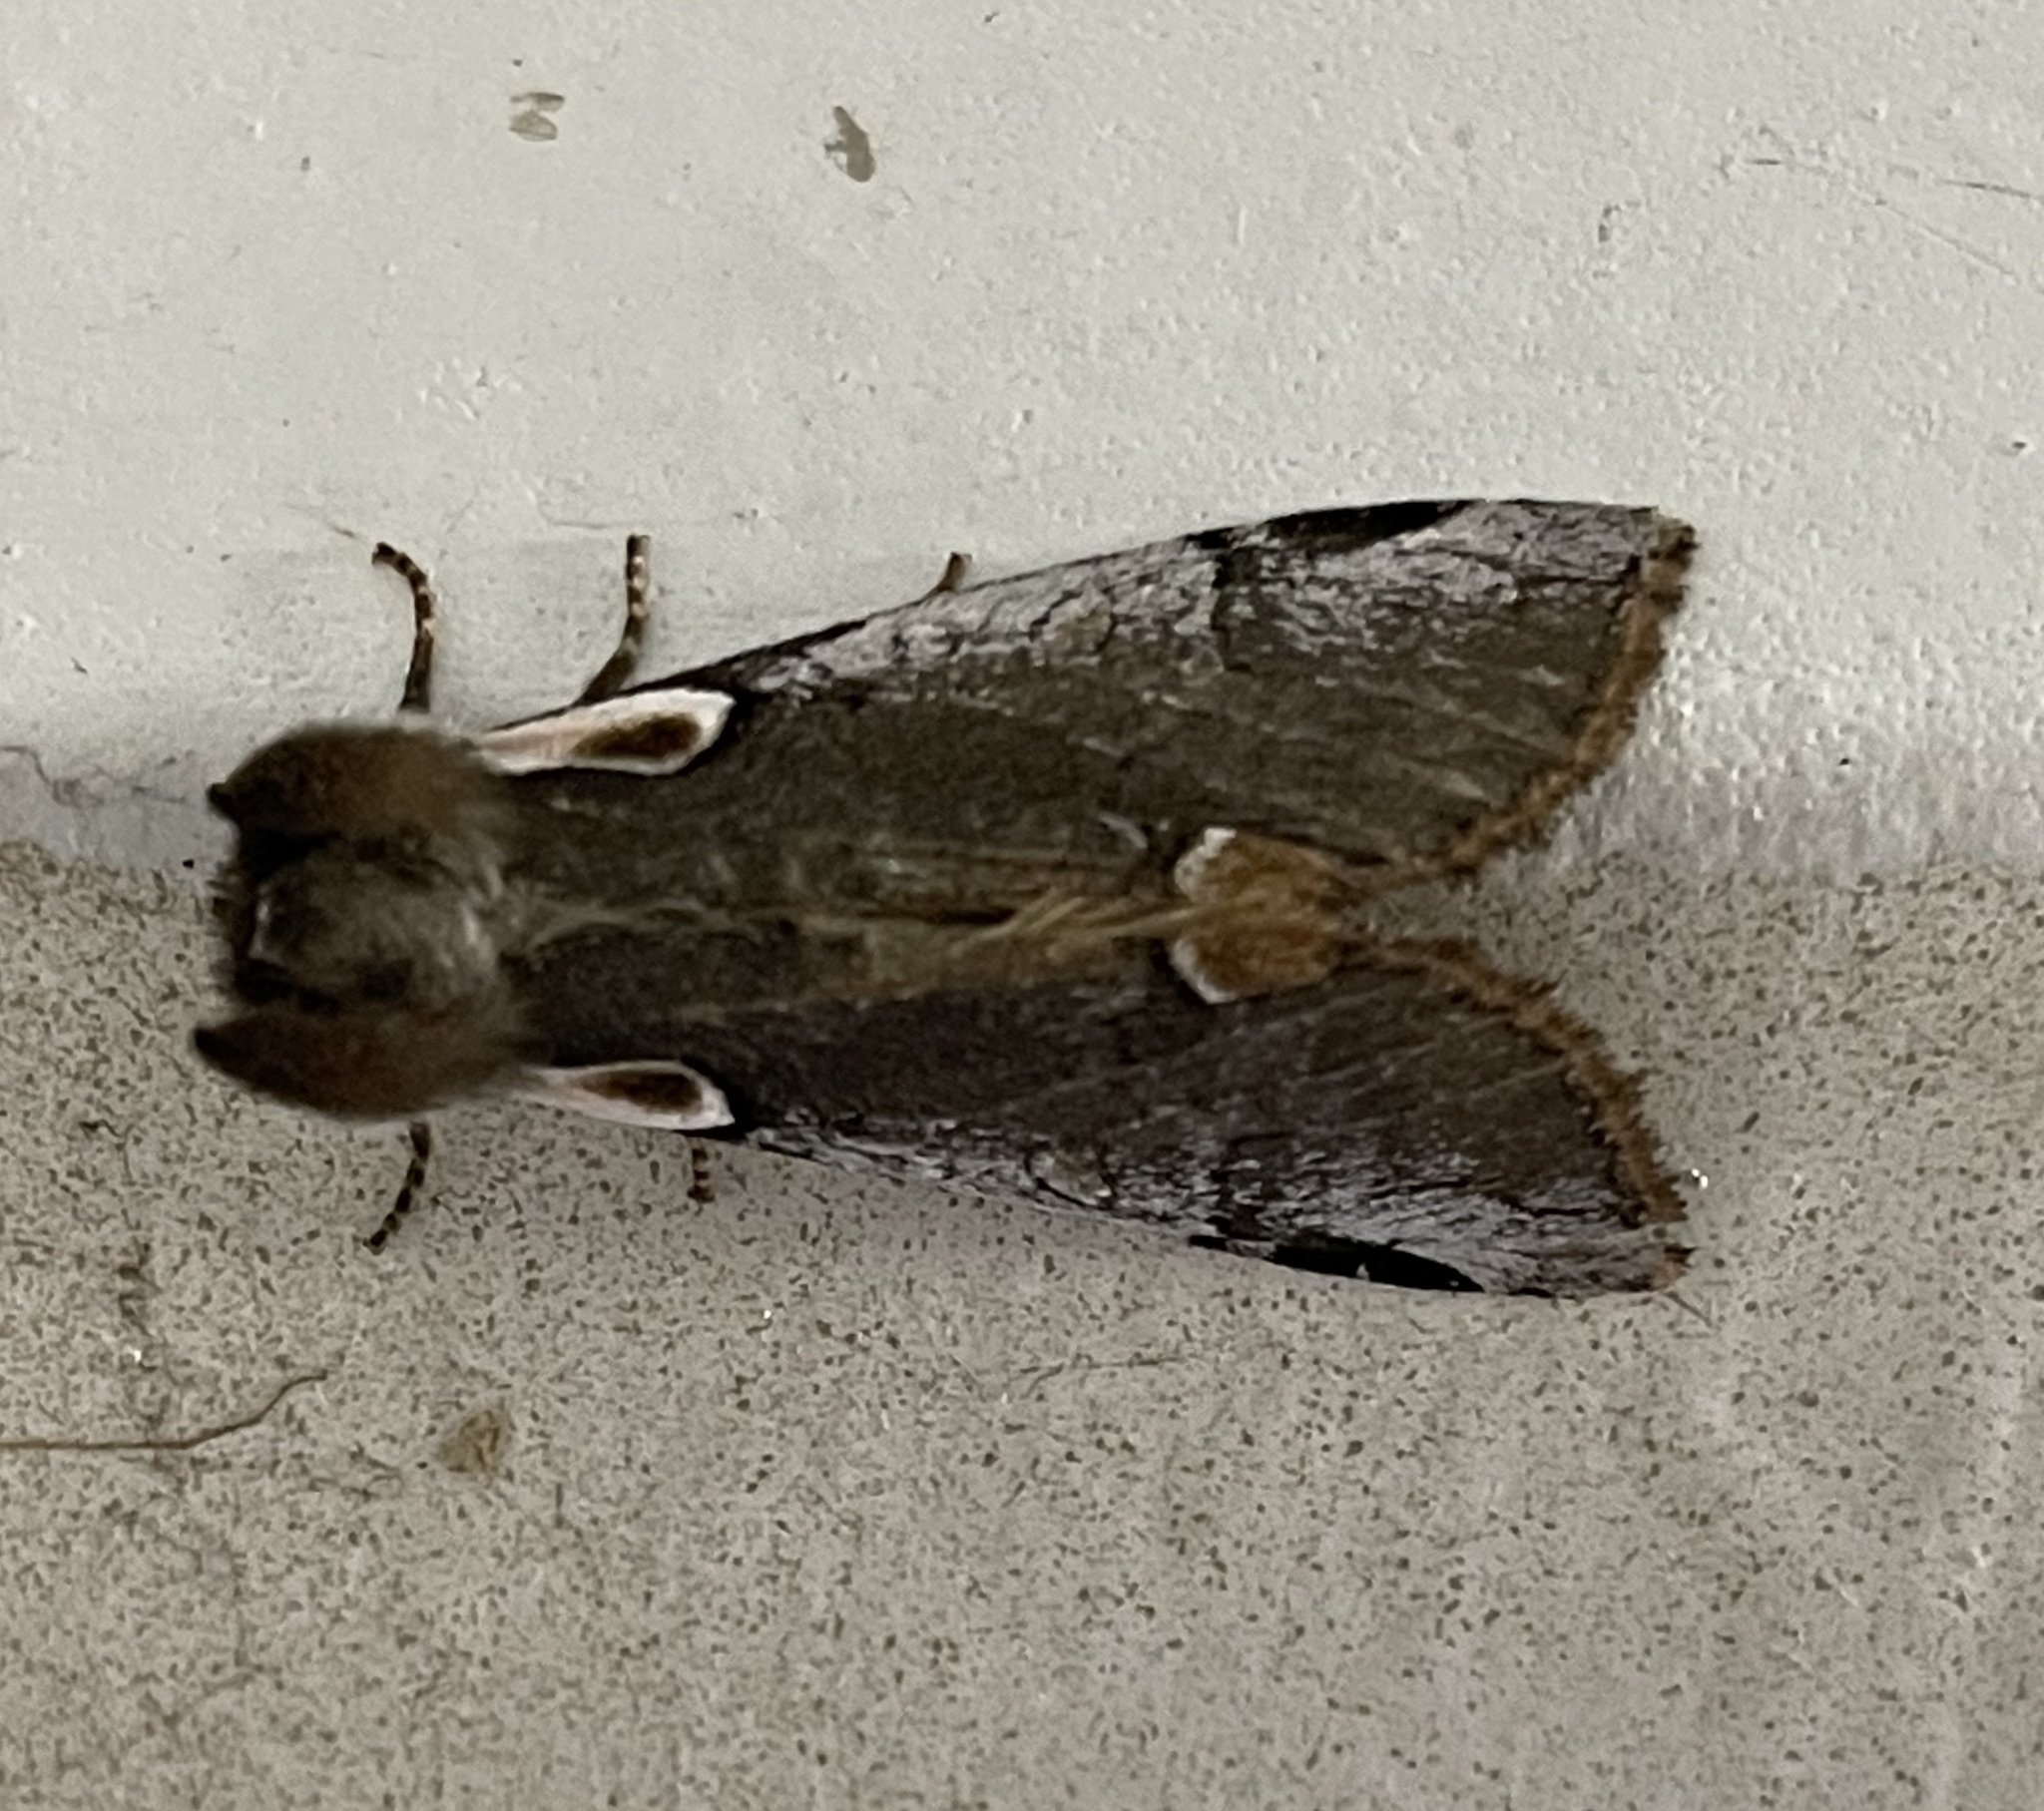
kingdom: Animalia
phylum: Arthropoda
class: Insecta
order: Lepidoptera
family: Drepanidae
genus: Euthyatira
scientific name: Euthyatira lorata
